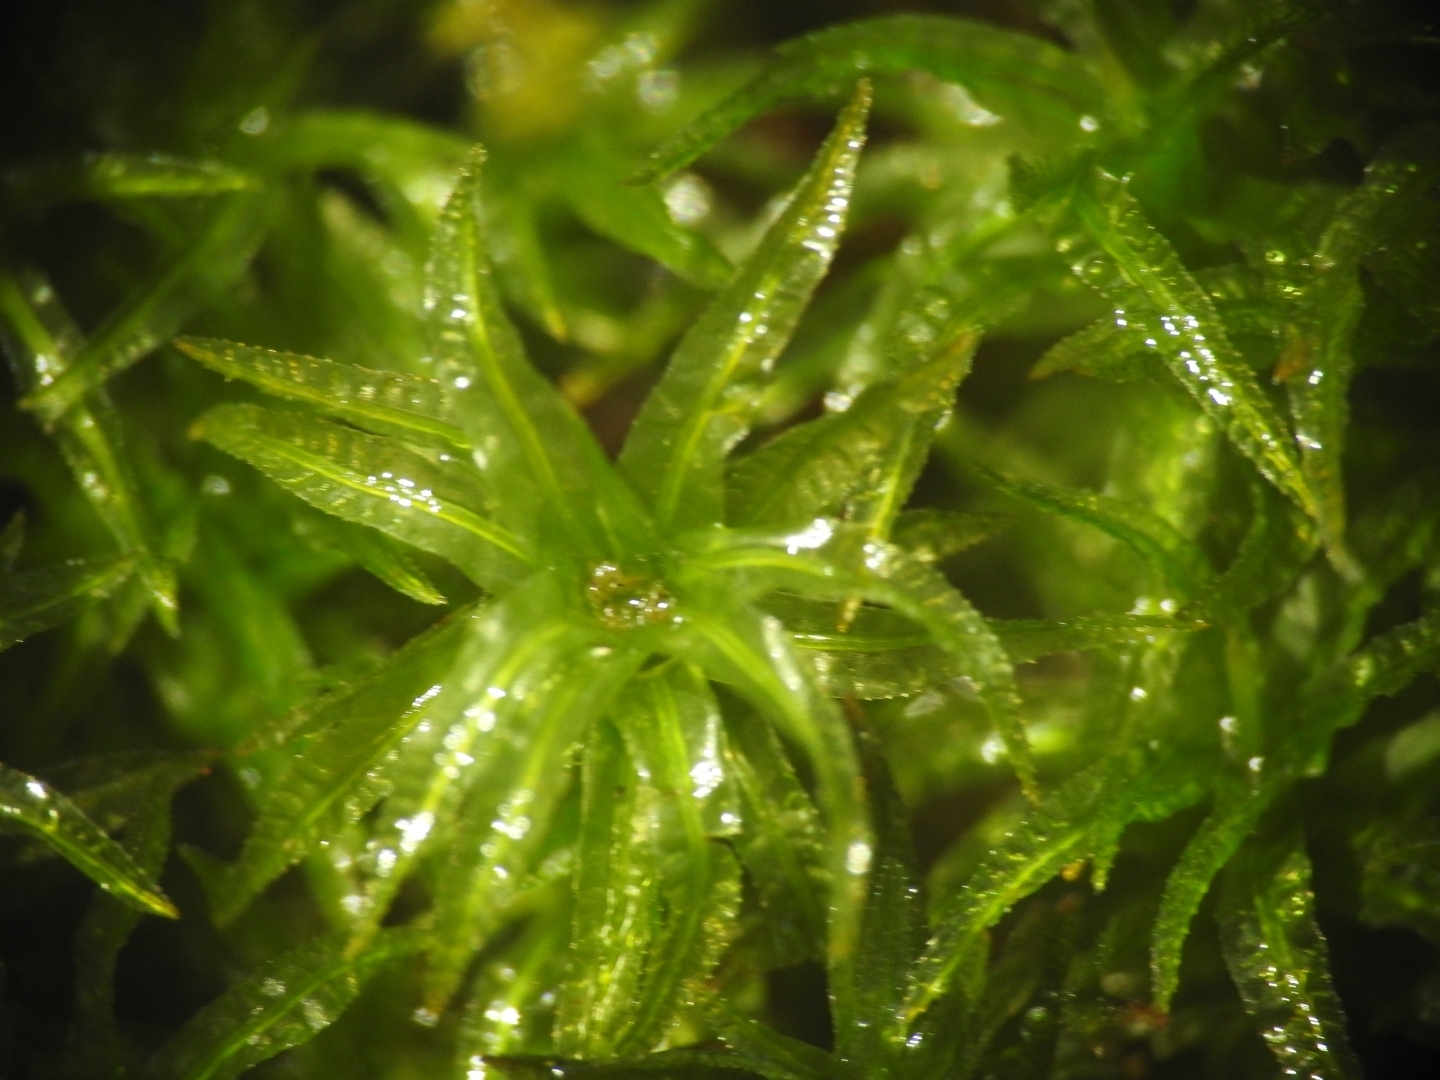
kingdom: Plantae
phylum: Bryophyta
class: Polytrichopsida
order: Polytrichales
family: Polytrichaceae
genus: Atrichum
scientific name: Atrichum undulatum
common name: Common smoothcap
